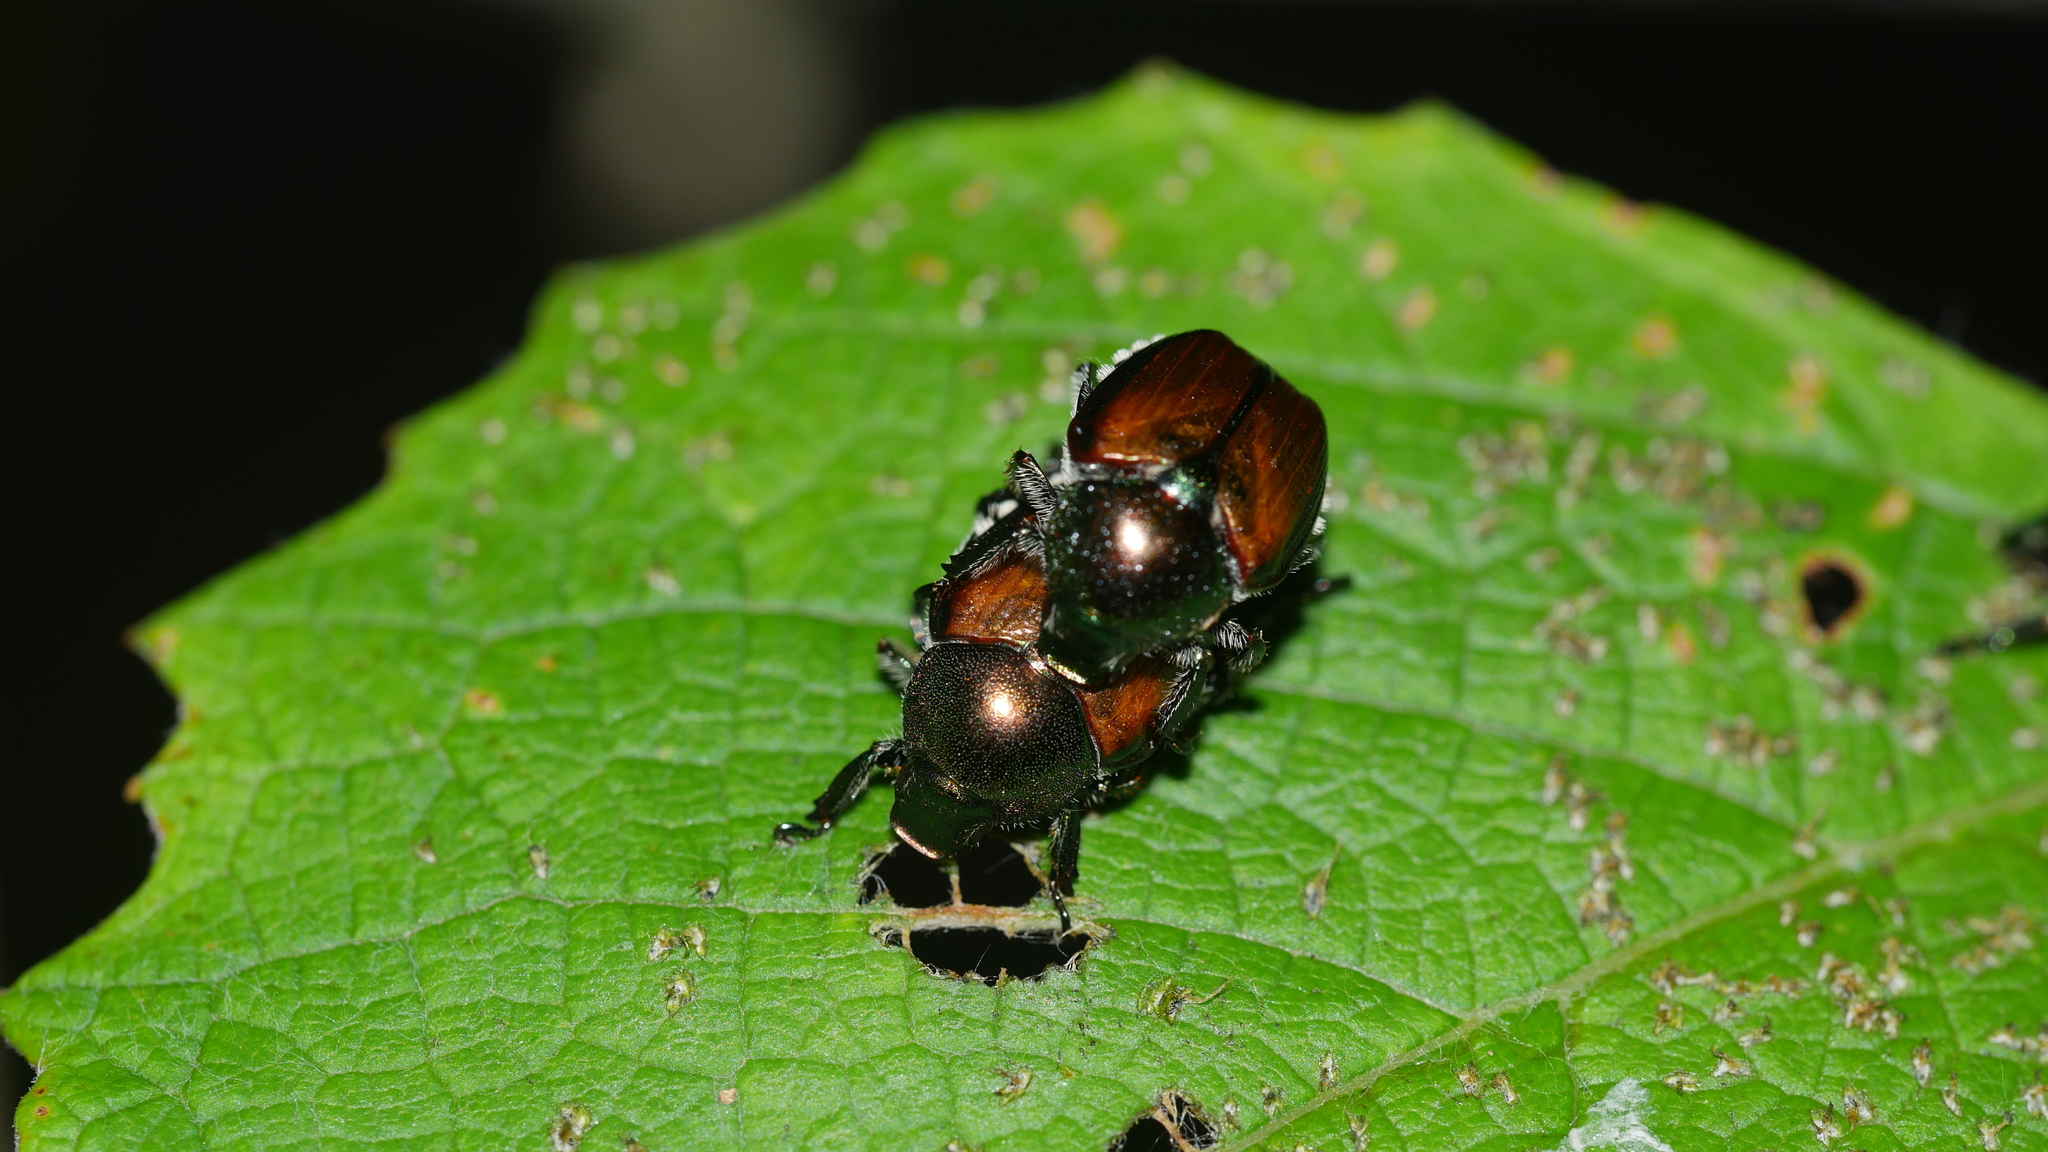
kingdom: Animalia
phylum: Arthropoda
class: Insecta
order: Coleoptera
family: Scarabaeidae
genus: Popillia
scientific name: Popillia japonica
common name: Japanese beetle
